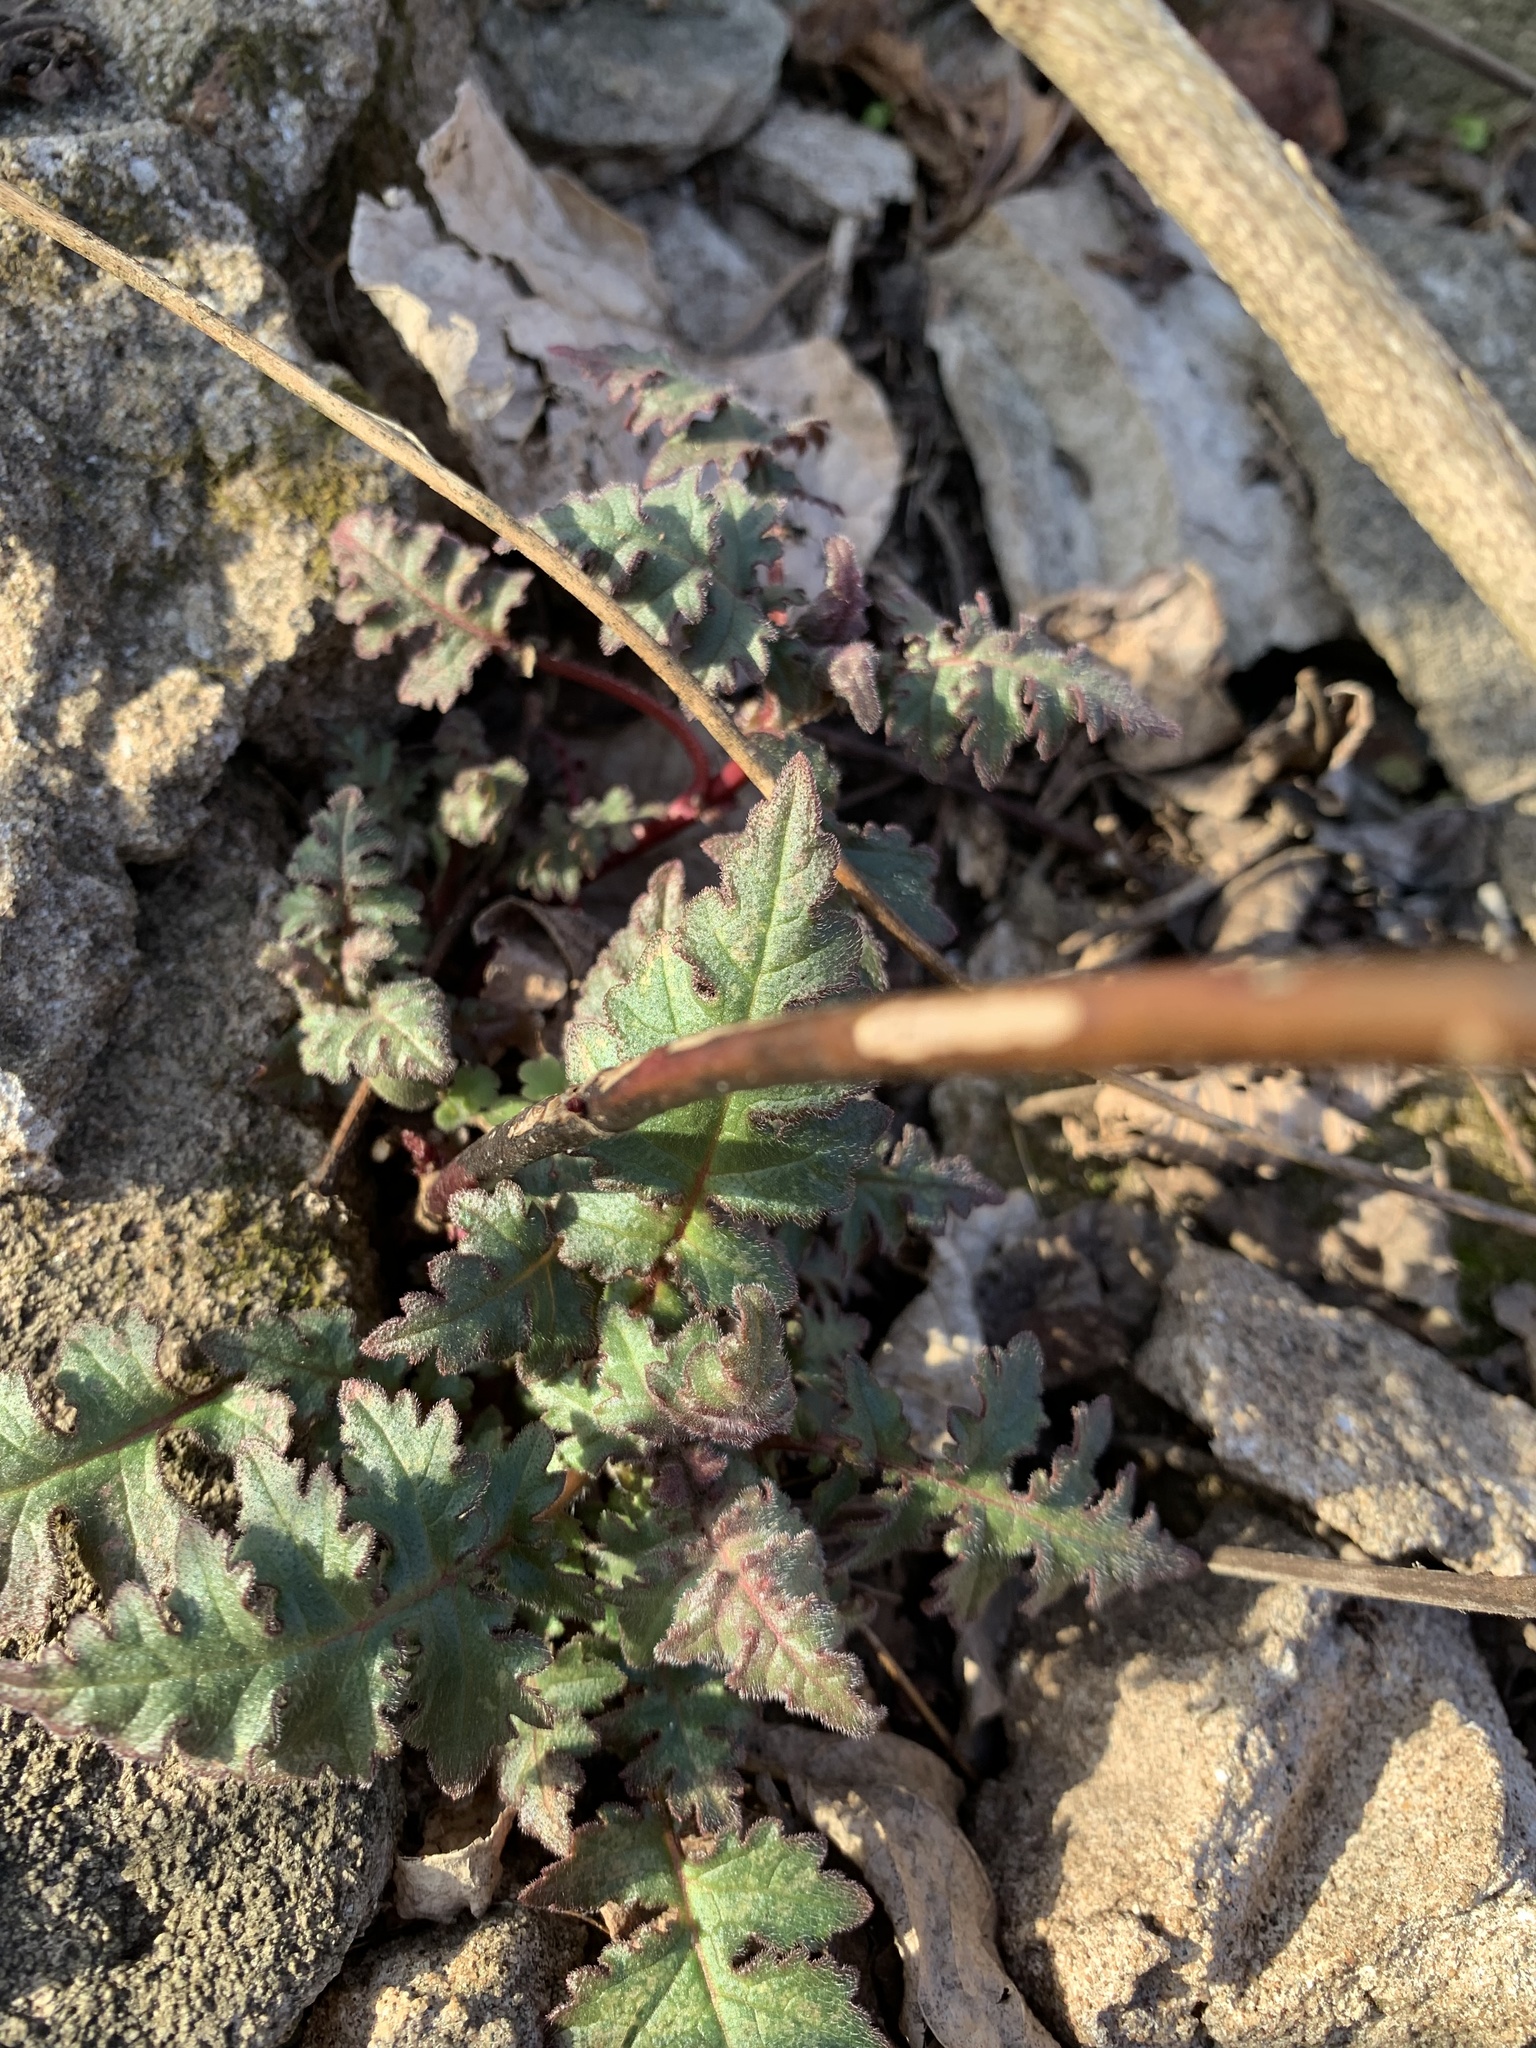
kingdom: Plantae
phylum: Tracheophyta
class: Magnoliopsida
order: Asterales
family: Asteraceae
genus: Polymnia
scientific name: Polymnia canadensis
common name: Pale-flowered leafcup
